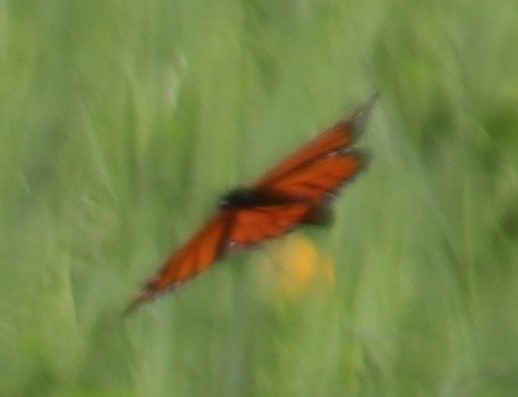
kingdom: Animalia
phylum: Arthropoda
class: Insecta
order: Lepidoptera
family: Nymphalidae
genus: Danaus
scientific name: Danaus plexippus
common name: Monarch
